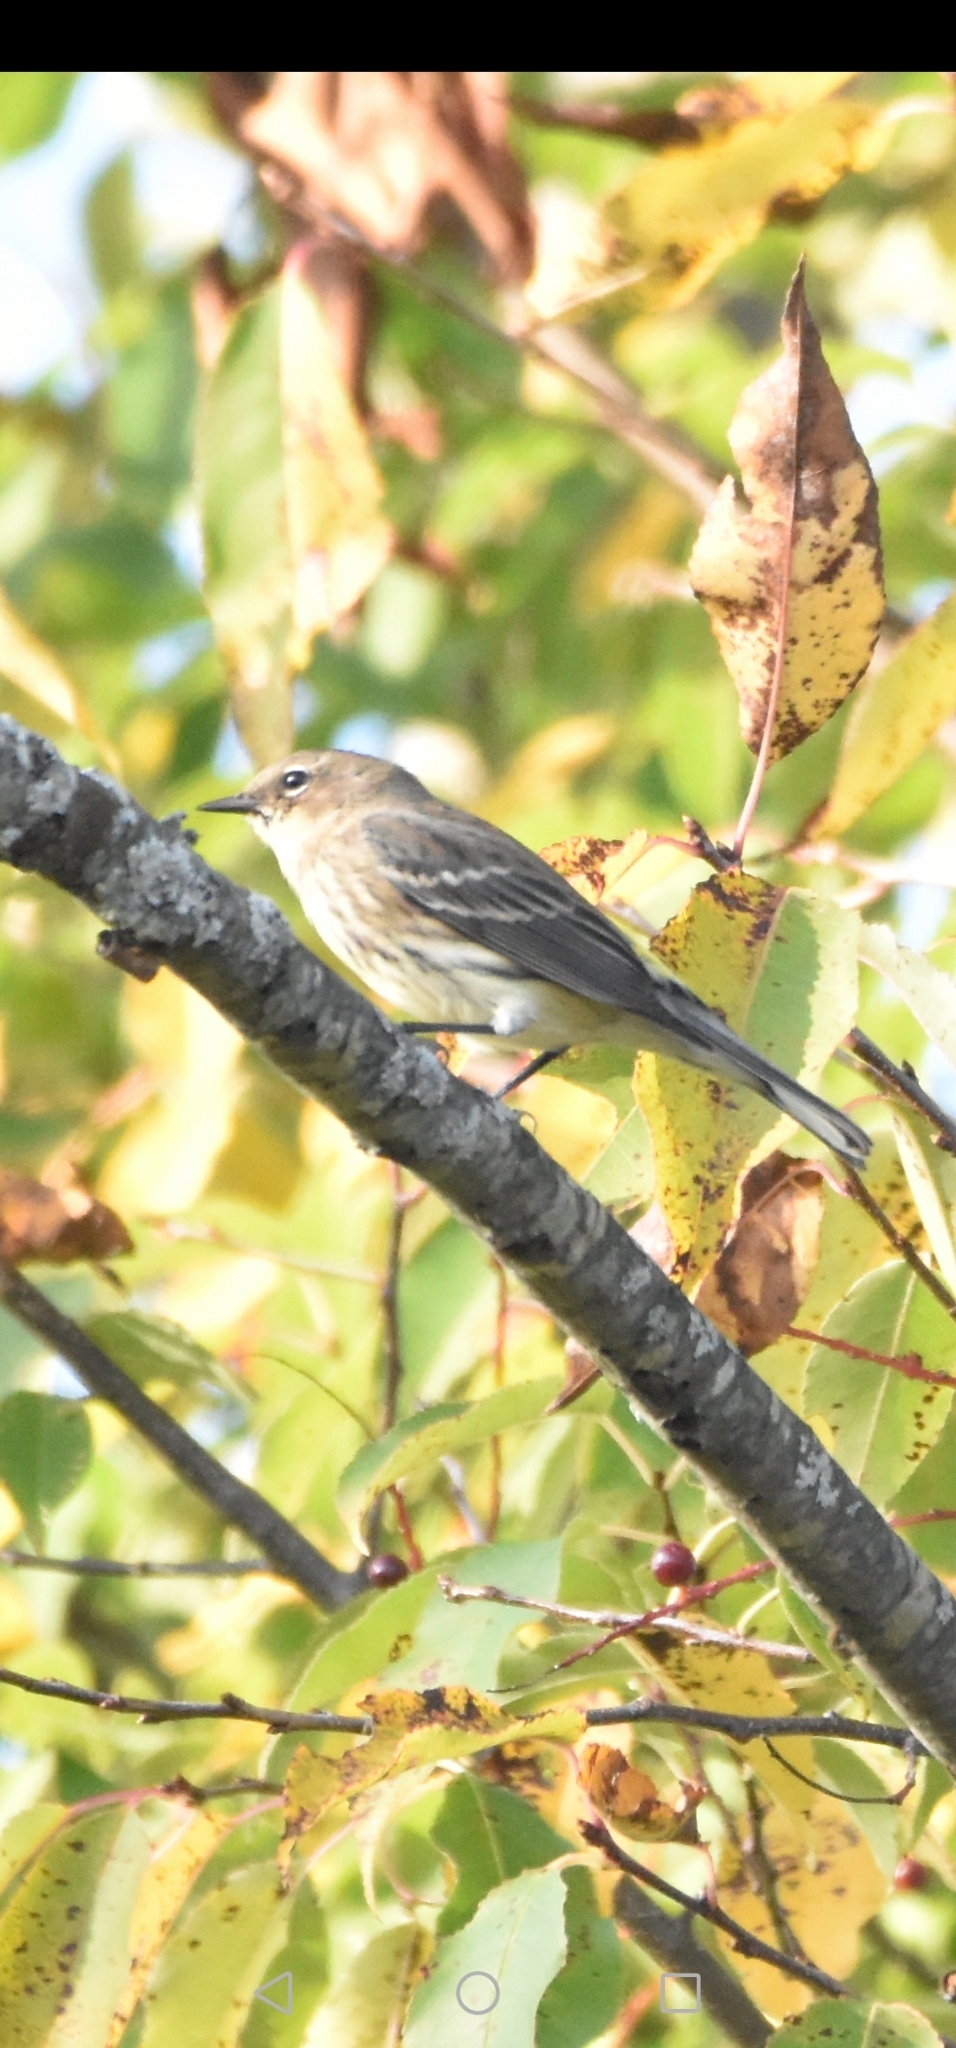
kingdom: Animalia
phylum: Chordata
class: Aves
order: Passeriformes
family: Parulidae
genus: Setophaga
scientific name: Setophaga coronata
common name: Myrtle warbler
